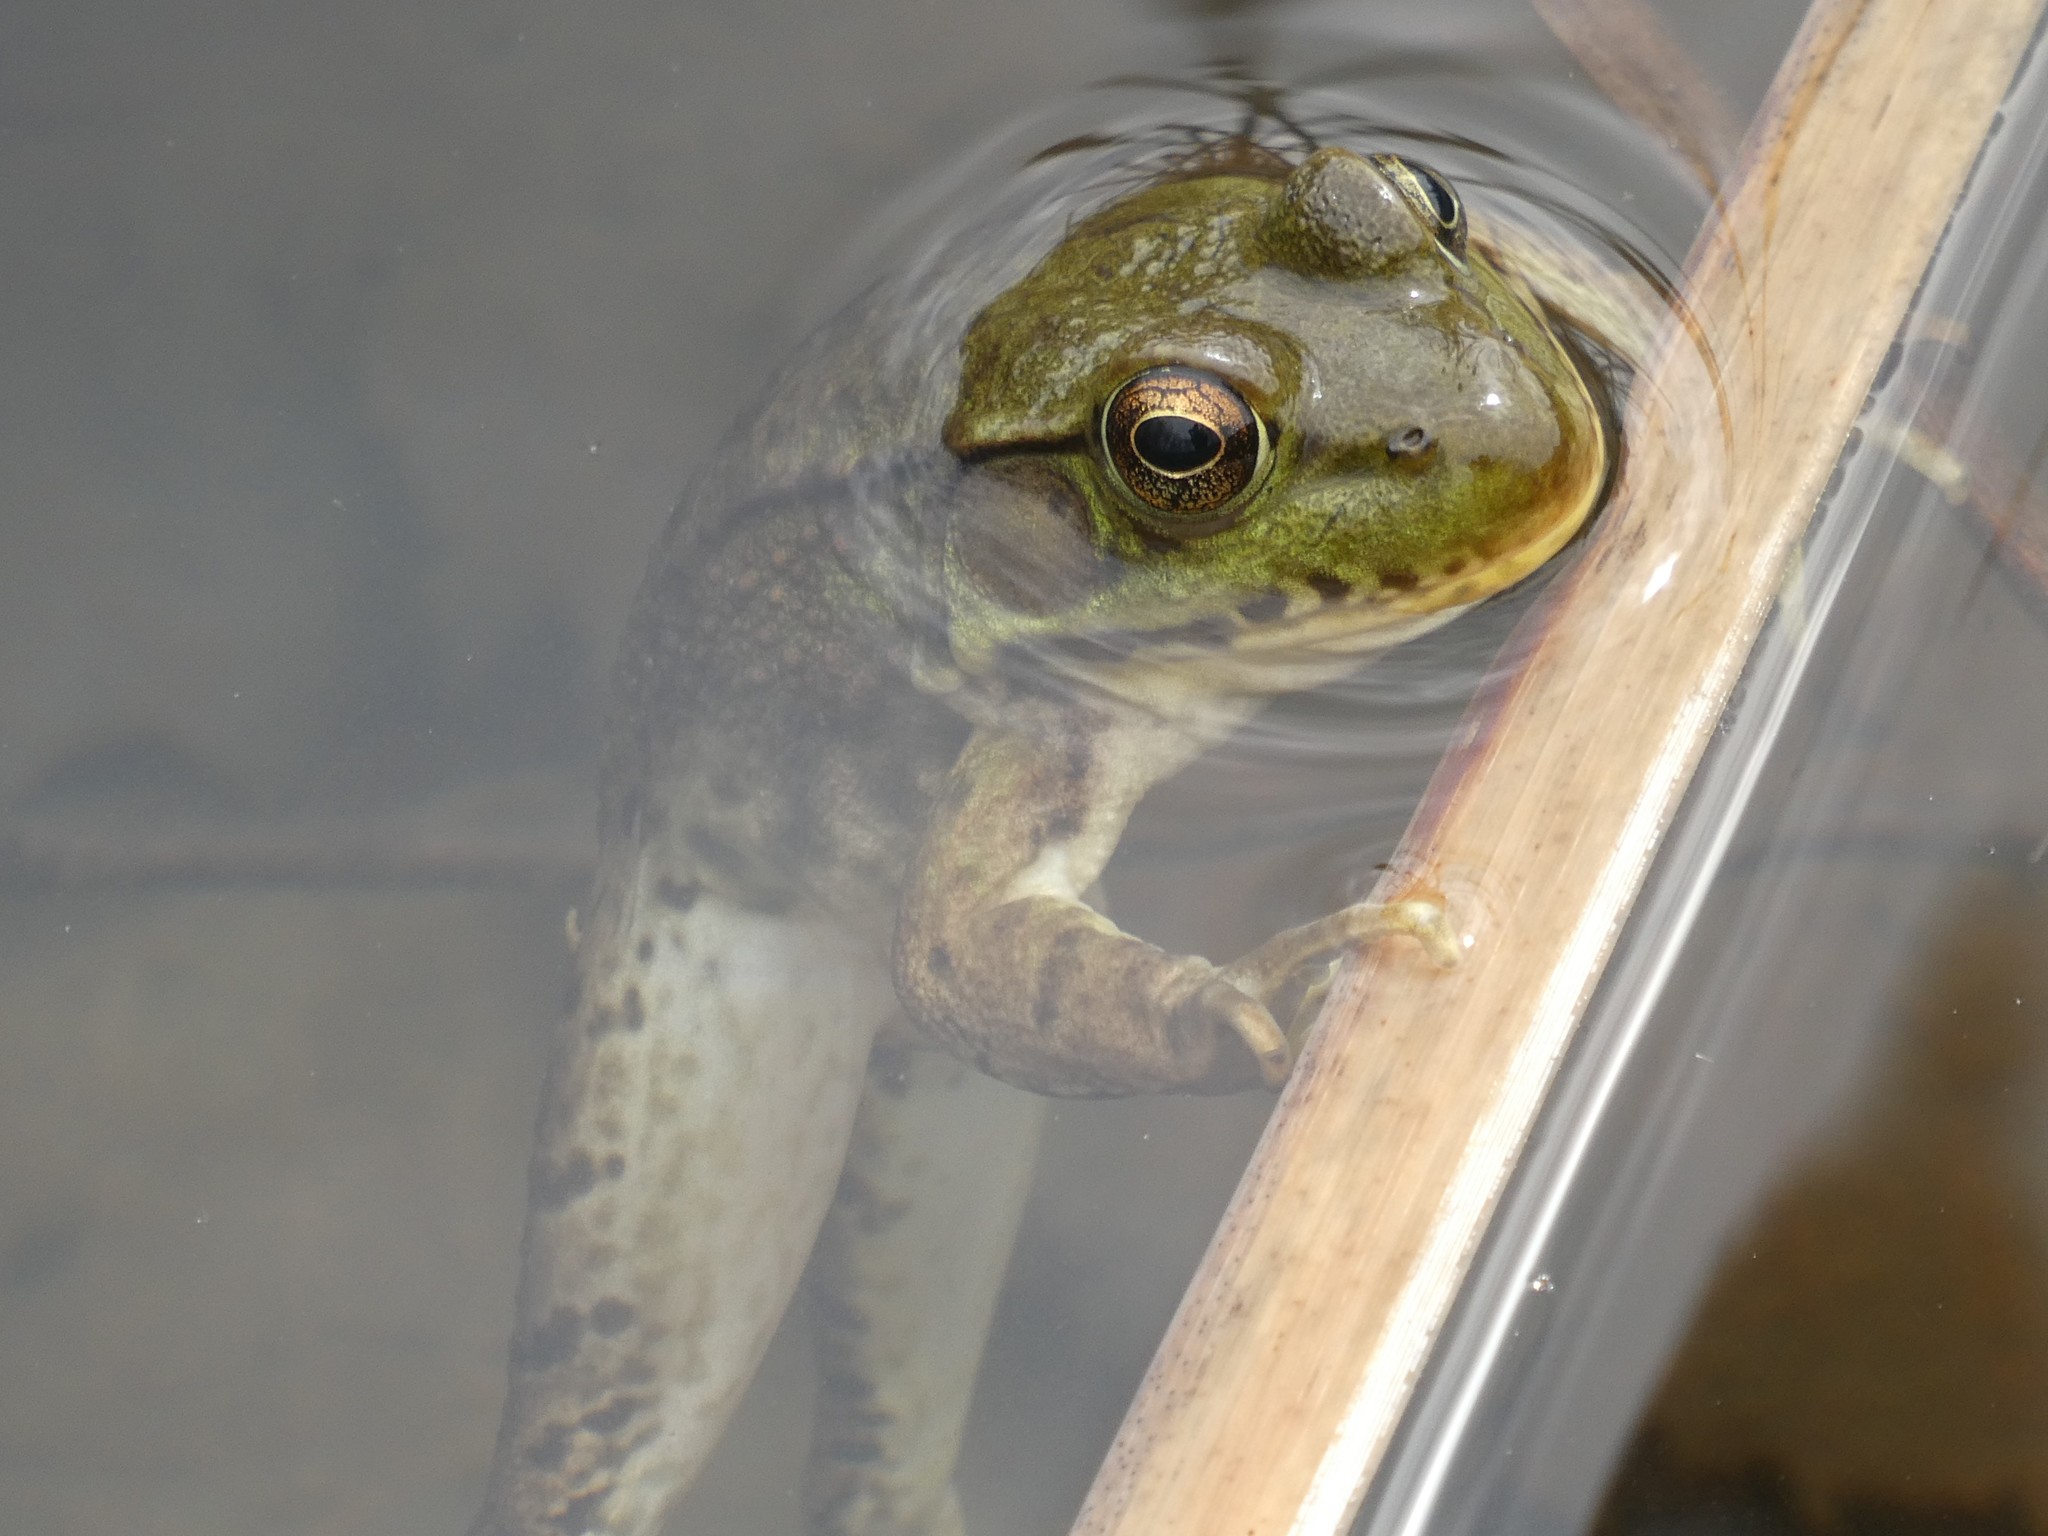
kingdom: Animalia
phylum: Chordata
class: Amphibia
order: Anura
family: Ranidae
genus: Lithobates
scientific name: Lithobates clamitans
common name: Green frog
